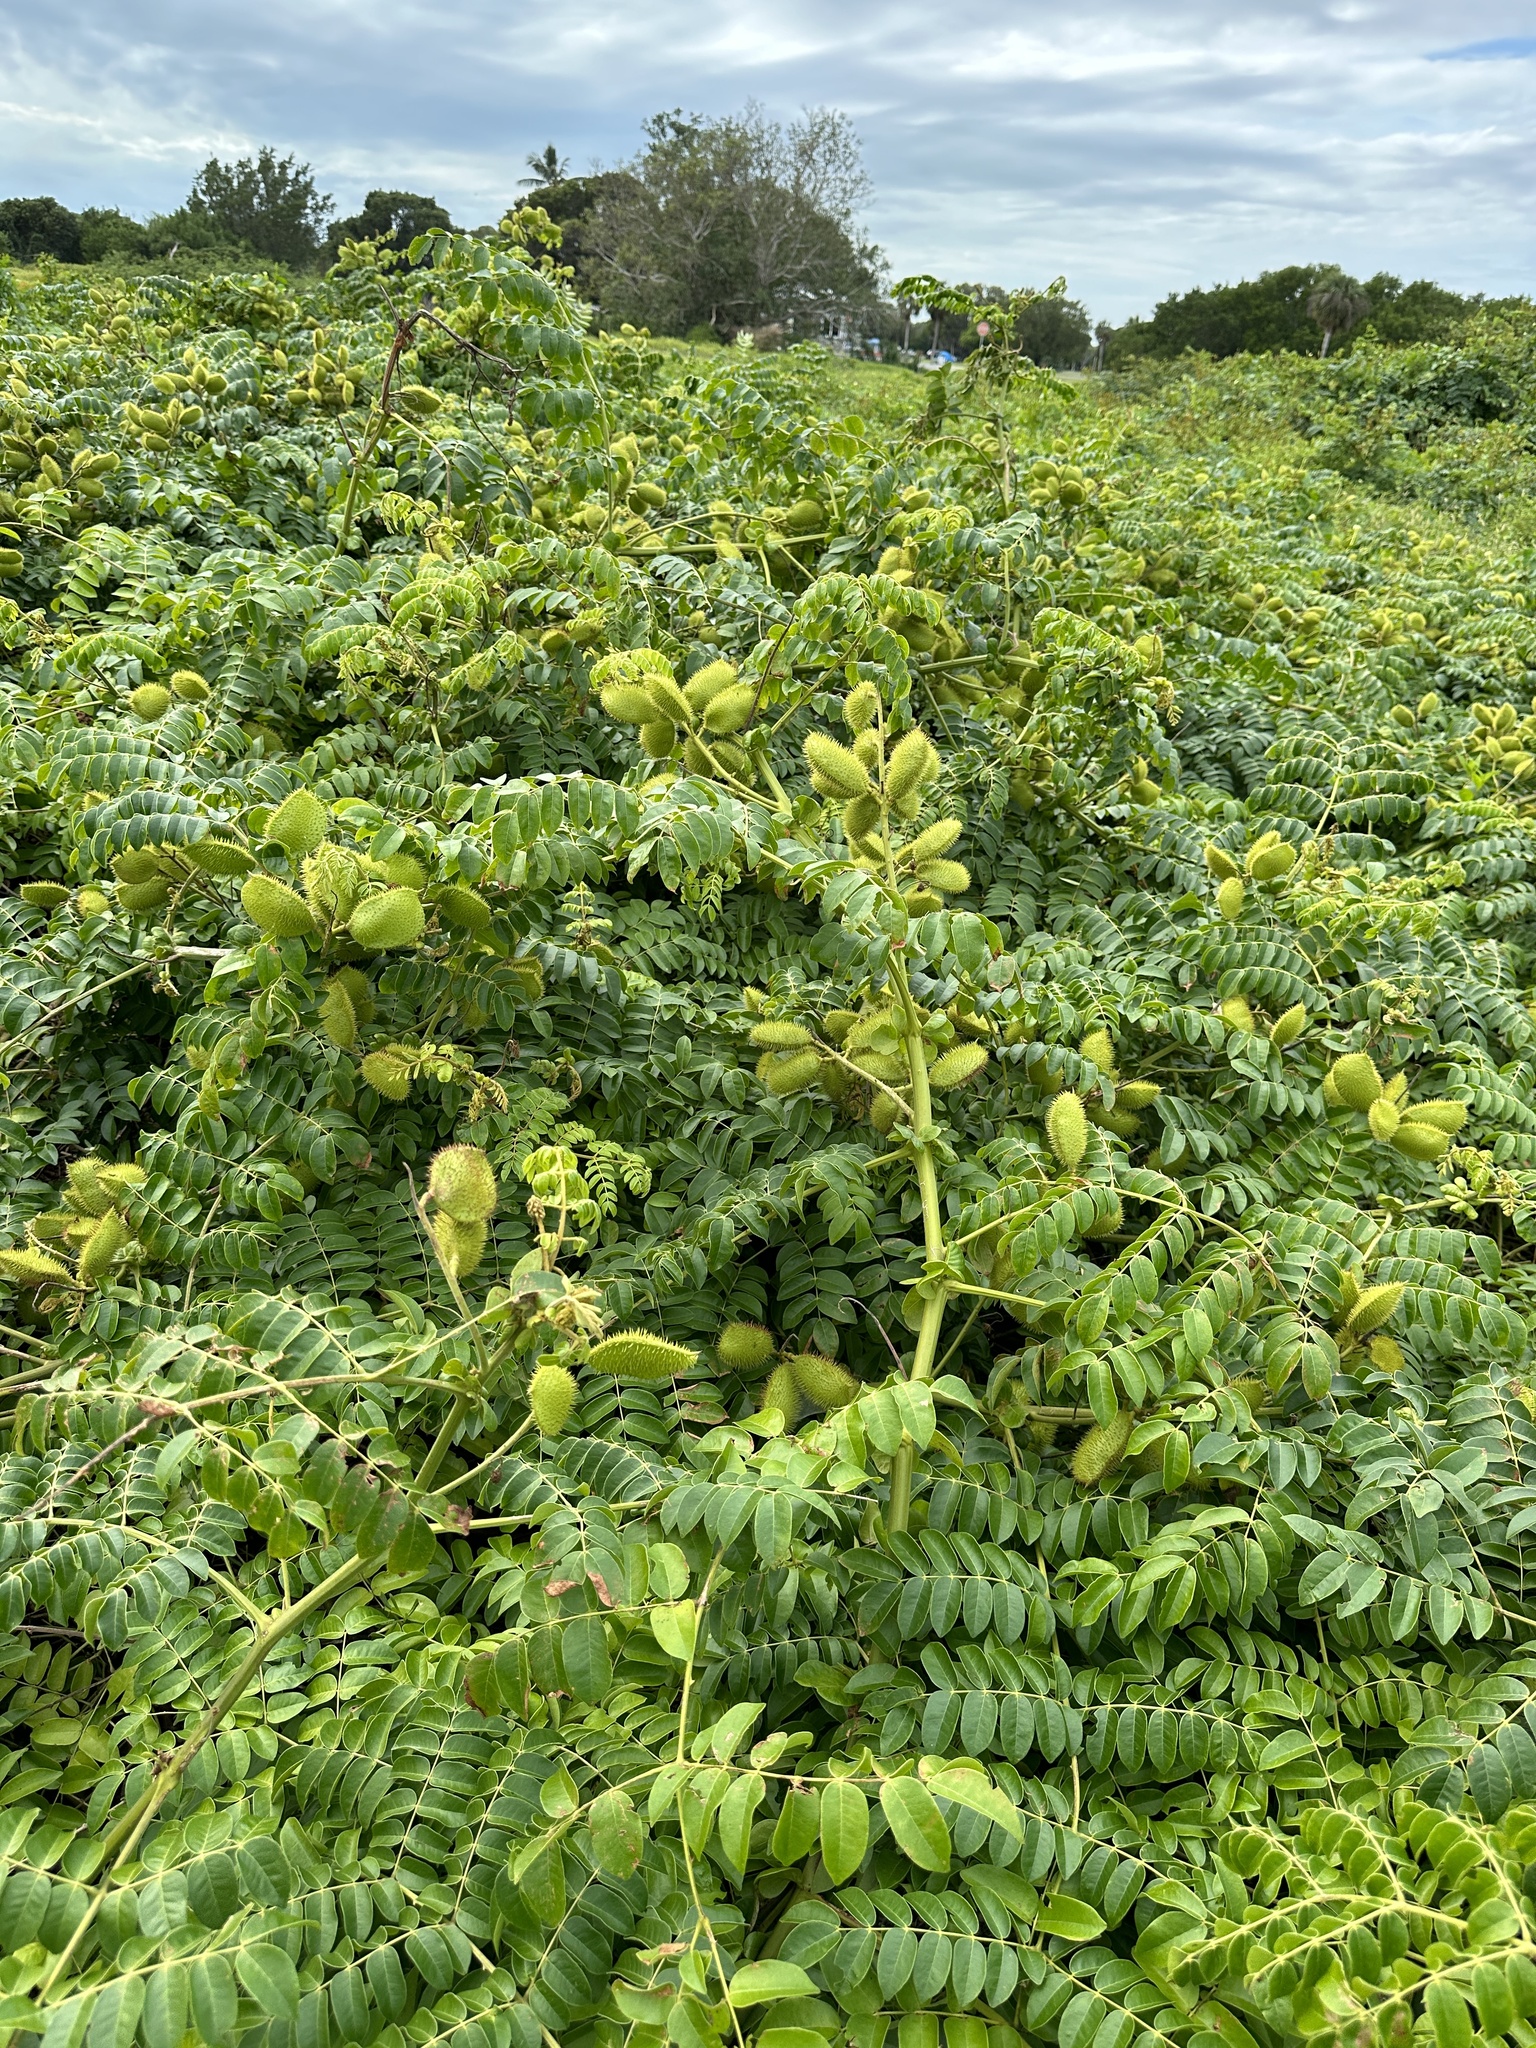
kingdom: Plantae
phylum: Tracheophyta
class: Magnoliopsida
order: Fabales
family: Fabaceae
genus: Guilandina
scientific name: Guilandina bonduc
